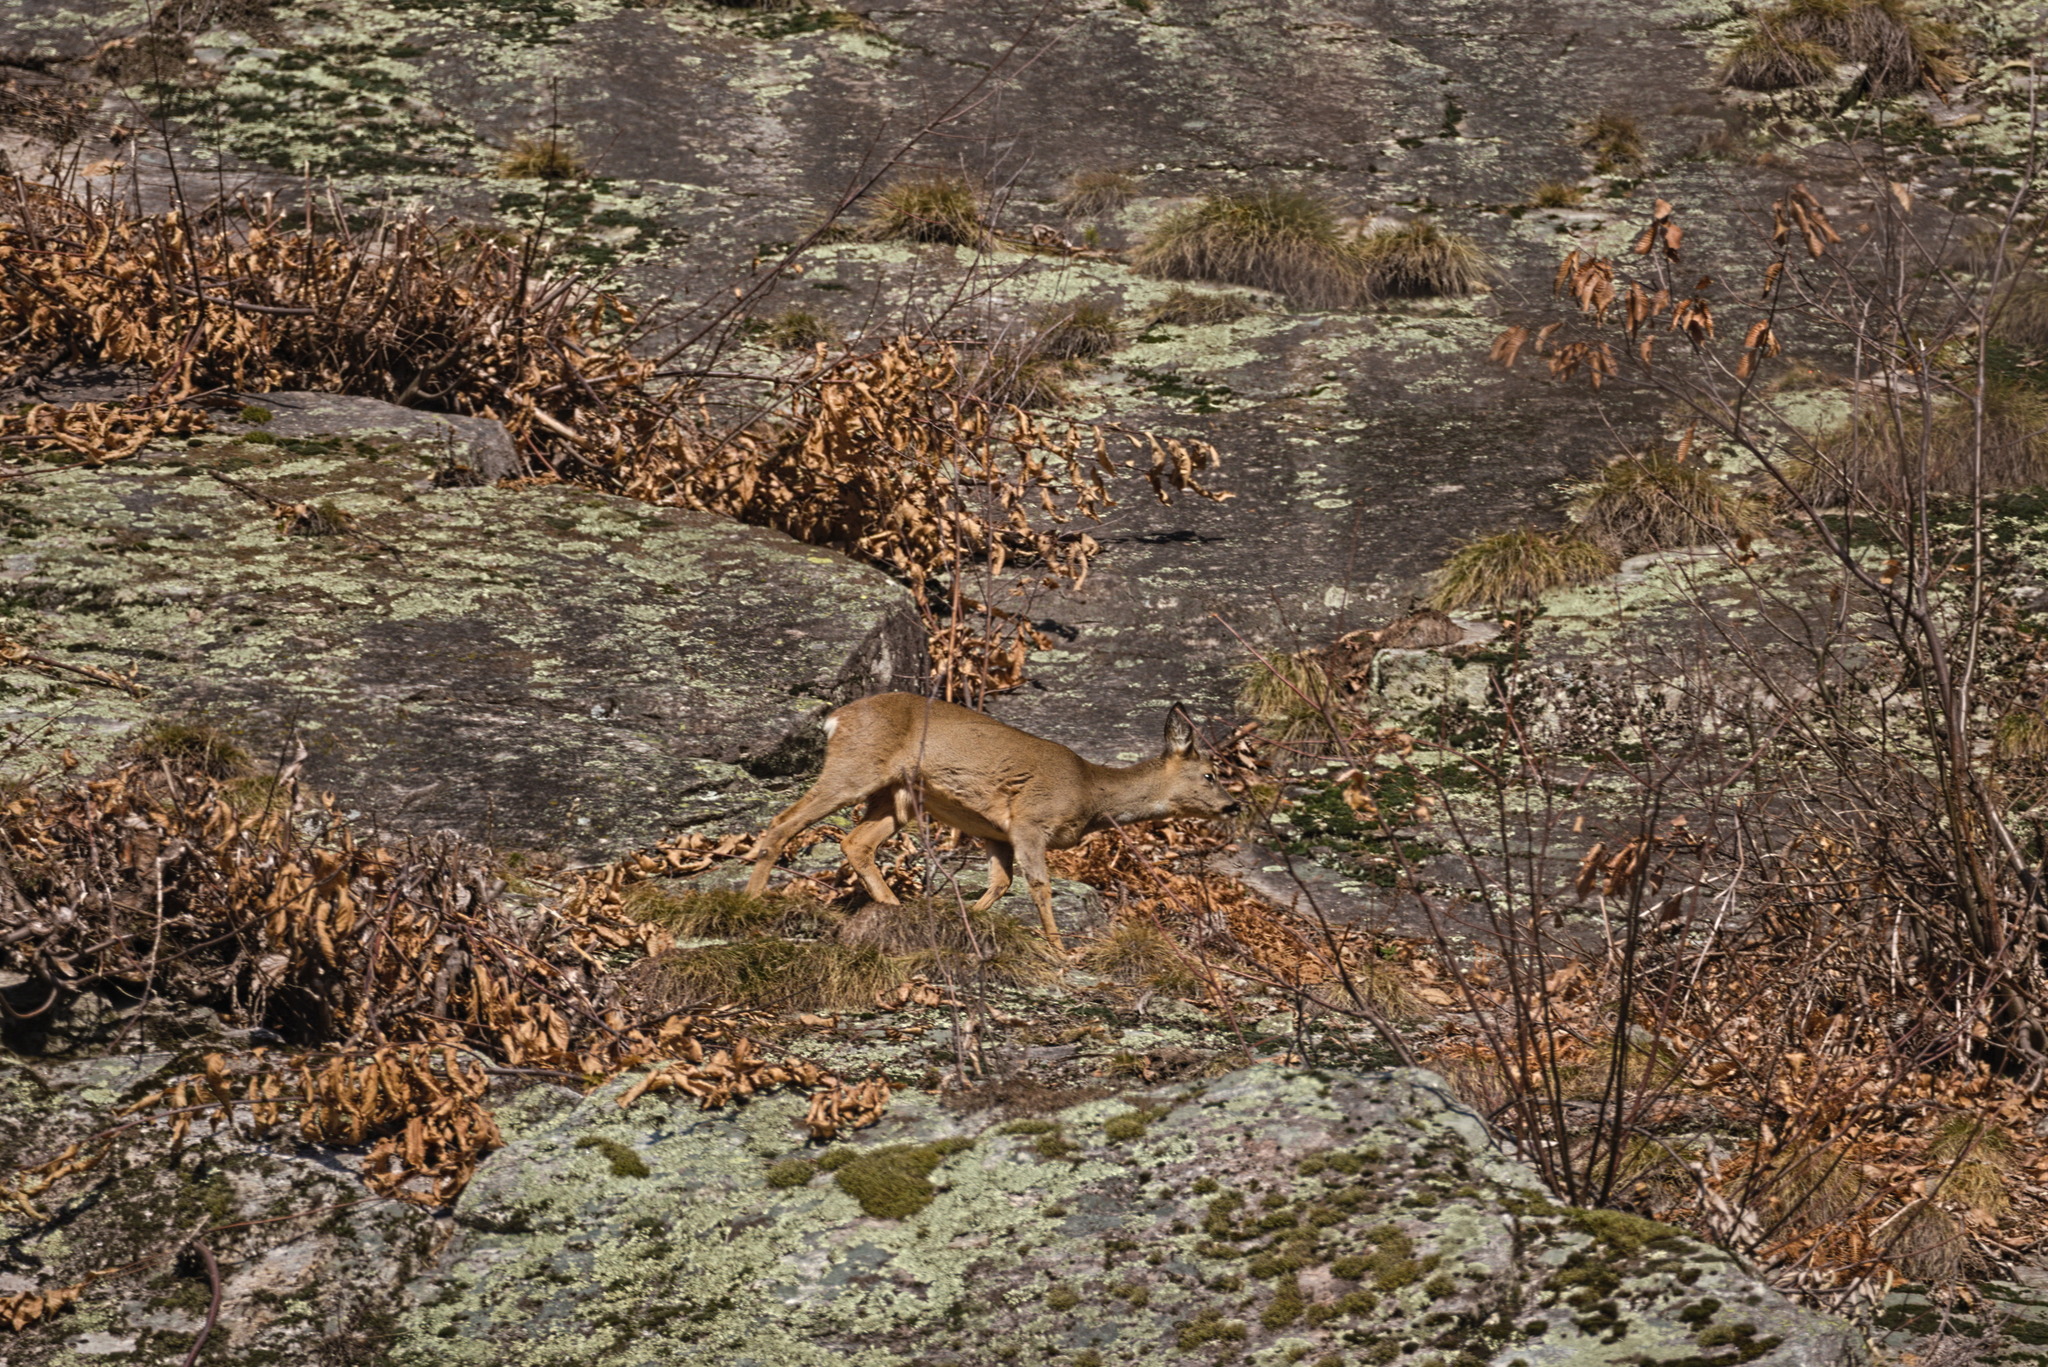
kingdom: Animalia
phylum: Chordata
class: Mammalia
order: Artiodactyla
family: Cervidae
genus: Capreolus
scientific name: Capreolus capreolus
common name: Western roe deer
